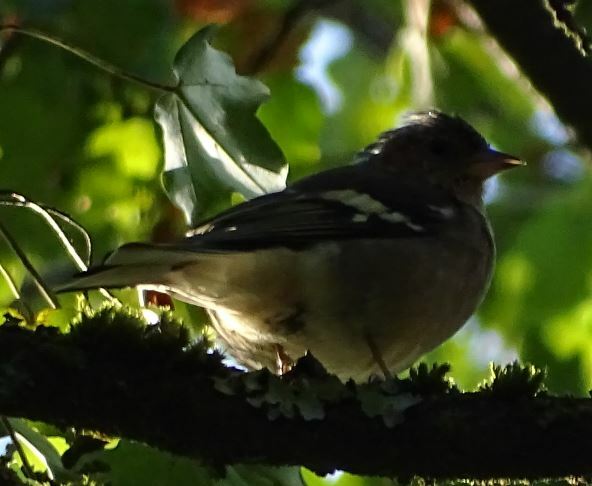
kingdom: Animalia
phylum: Chordata
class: Aves
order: Passeriformes
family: Fringillidae
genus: Fringilla
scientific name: Fringilla coelebs
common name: Common chaffinch
